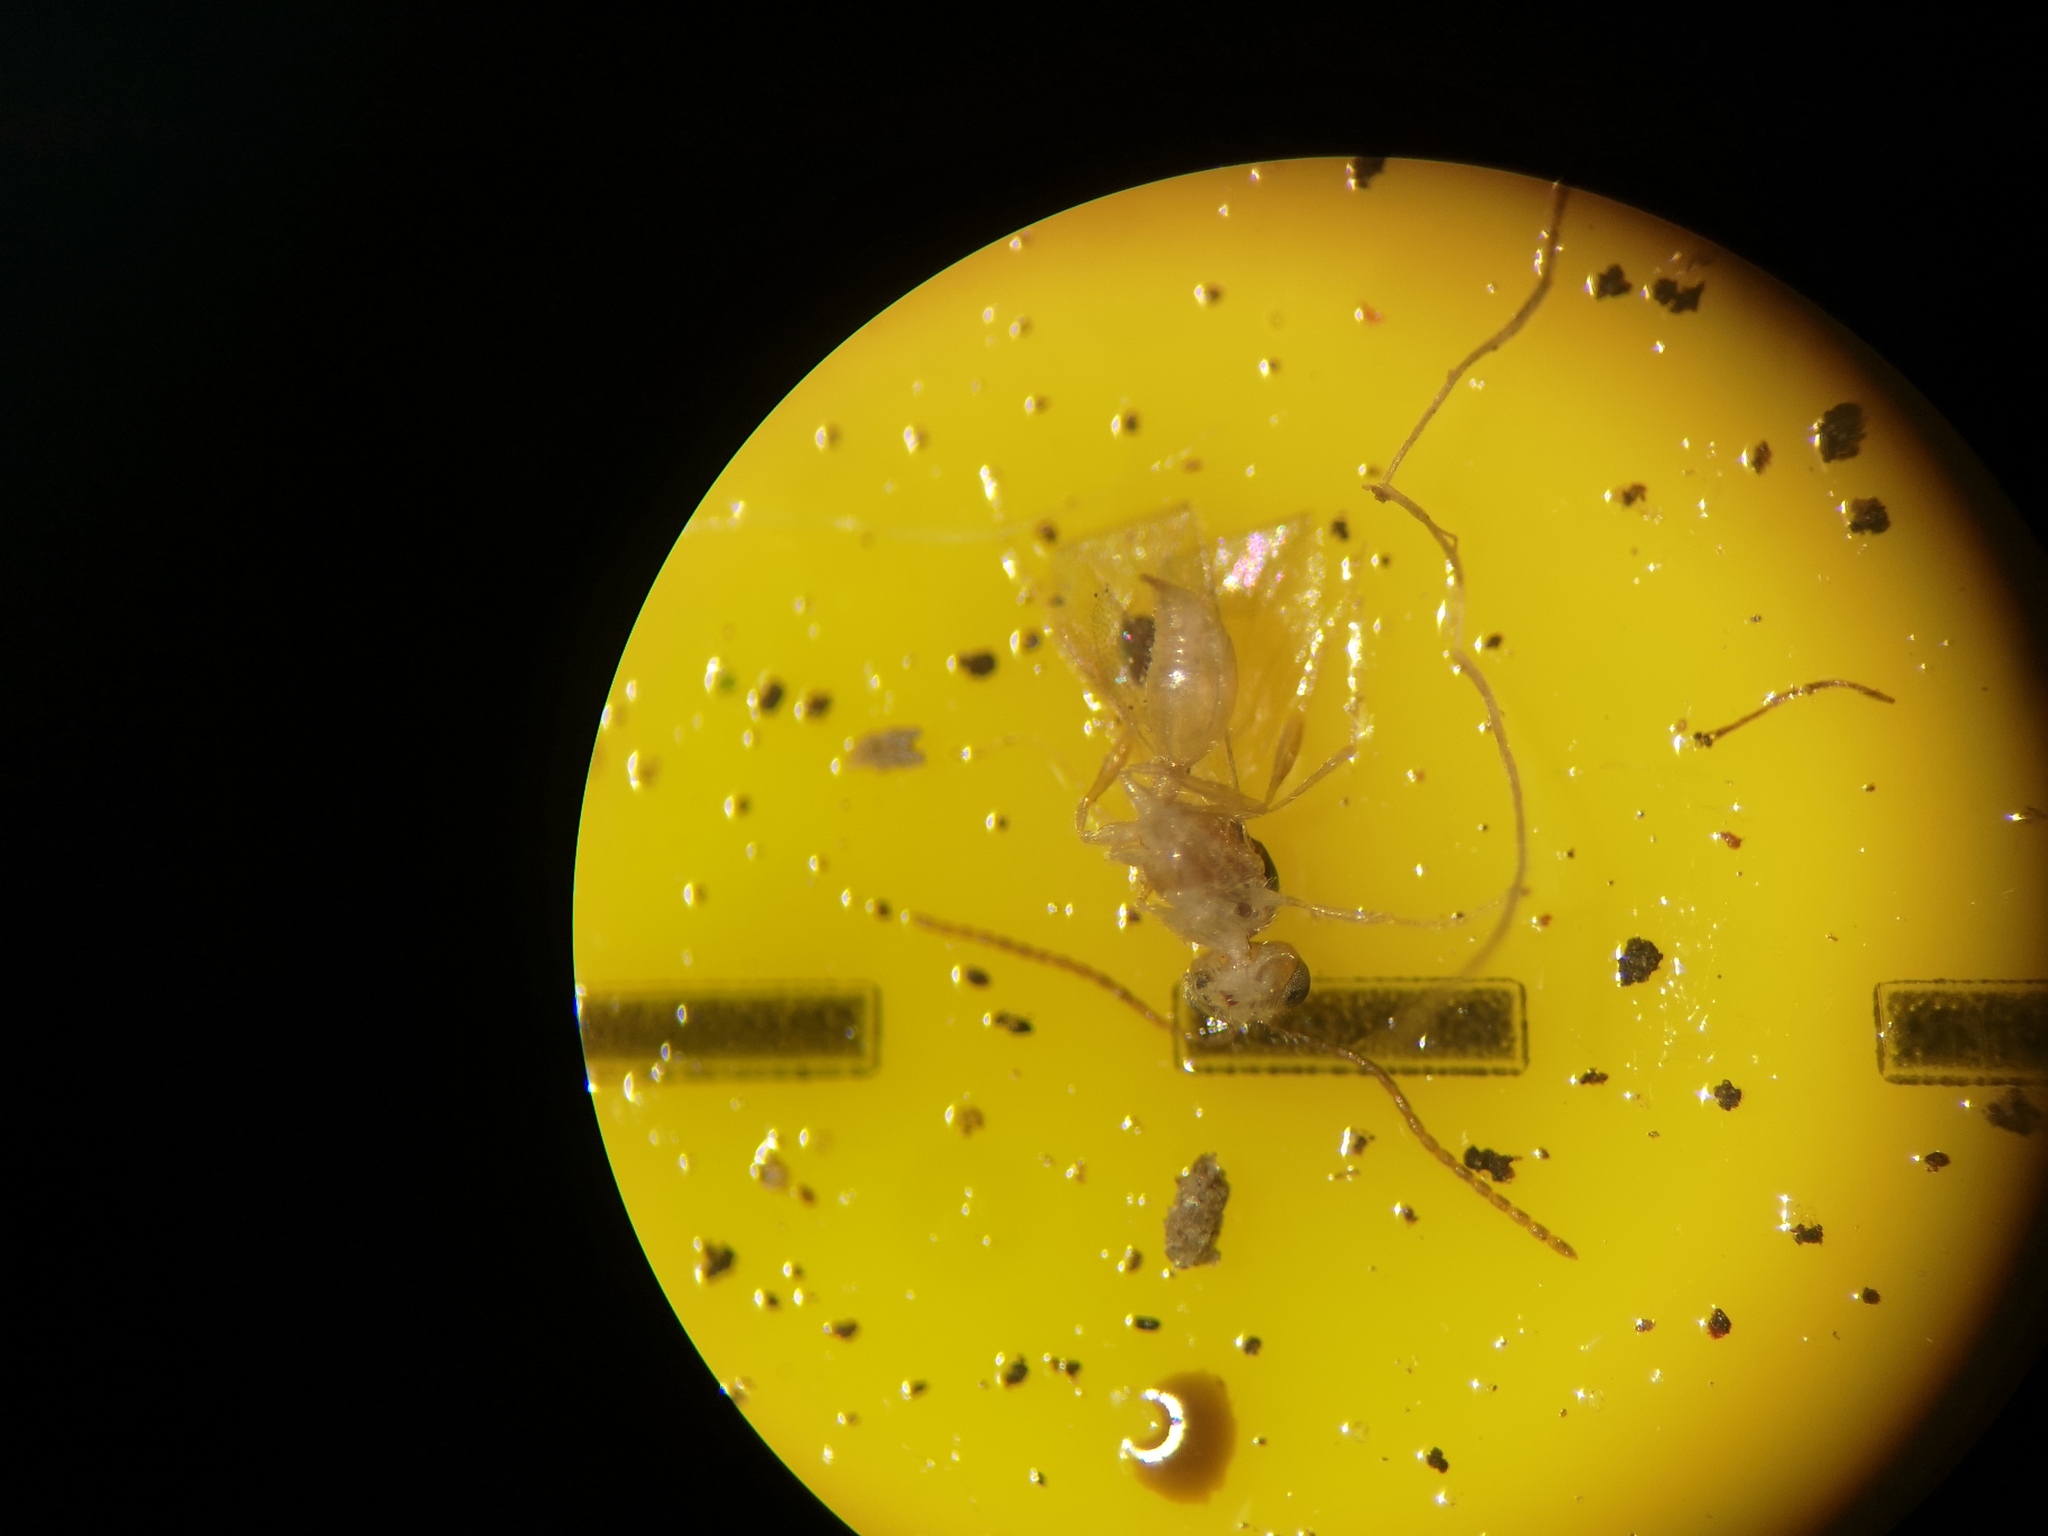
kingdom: Animalia
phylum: Arthropoda
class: Insecta
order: Hymenoptera
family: Diapriidae
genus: Ismarus
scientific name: Ismarus dorsiger
